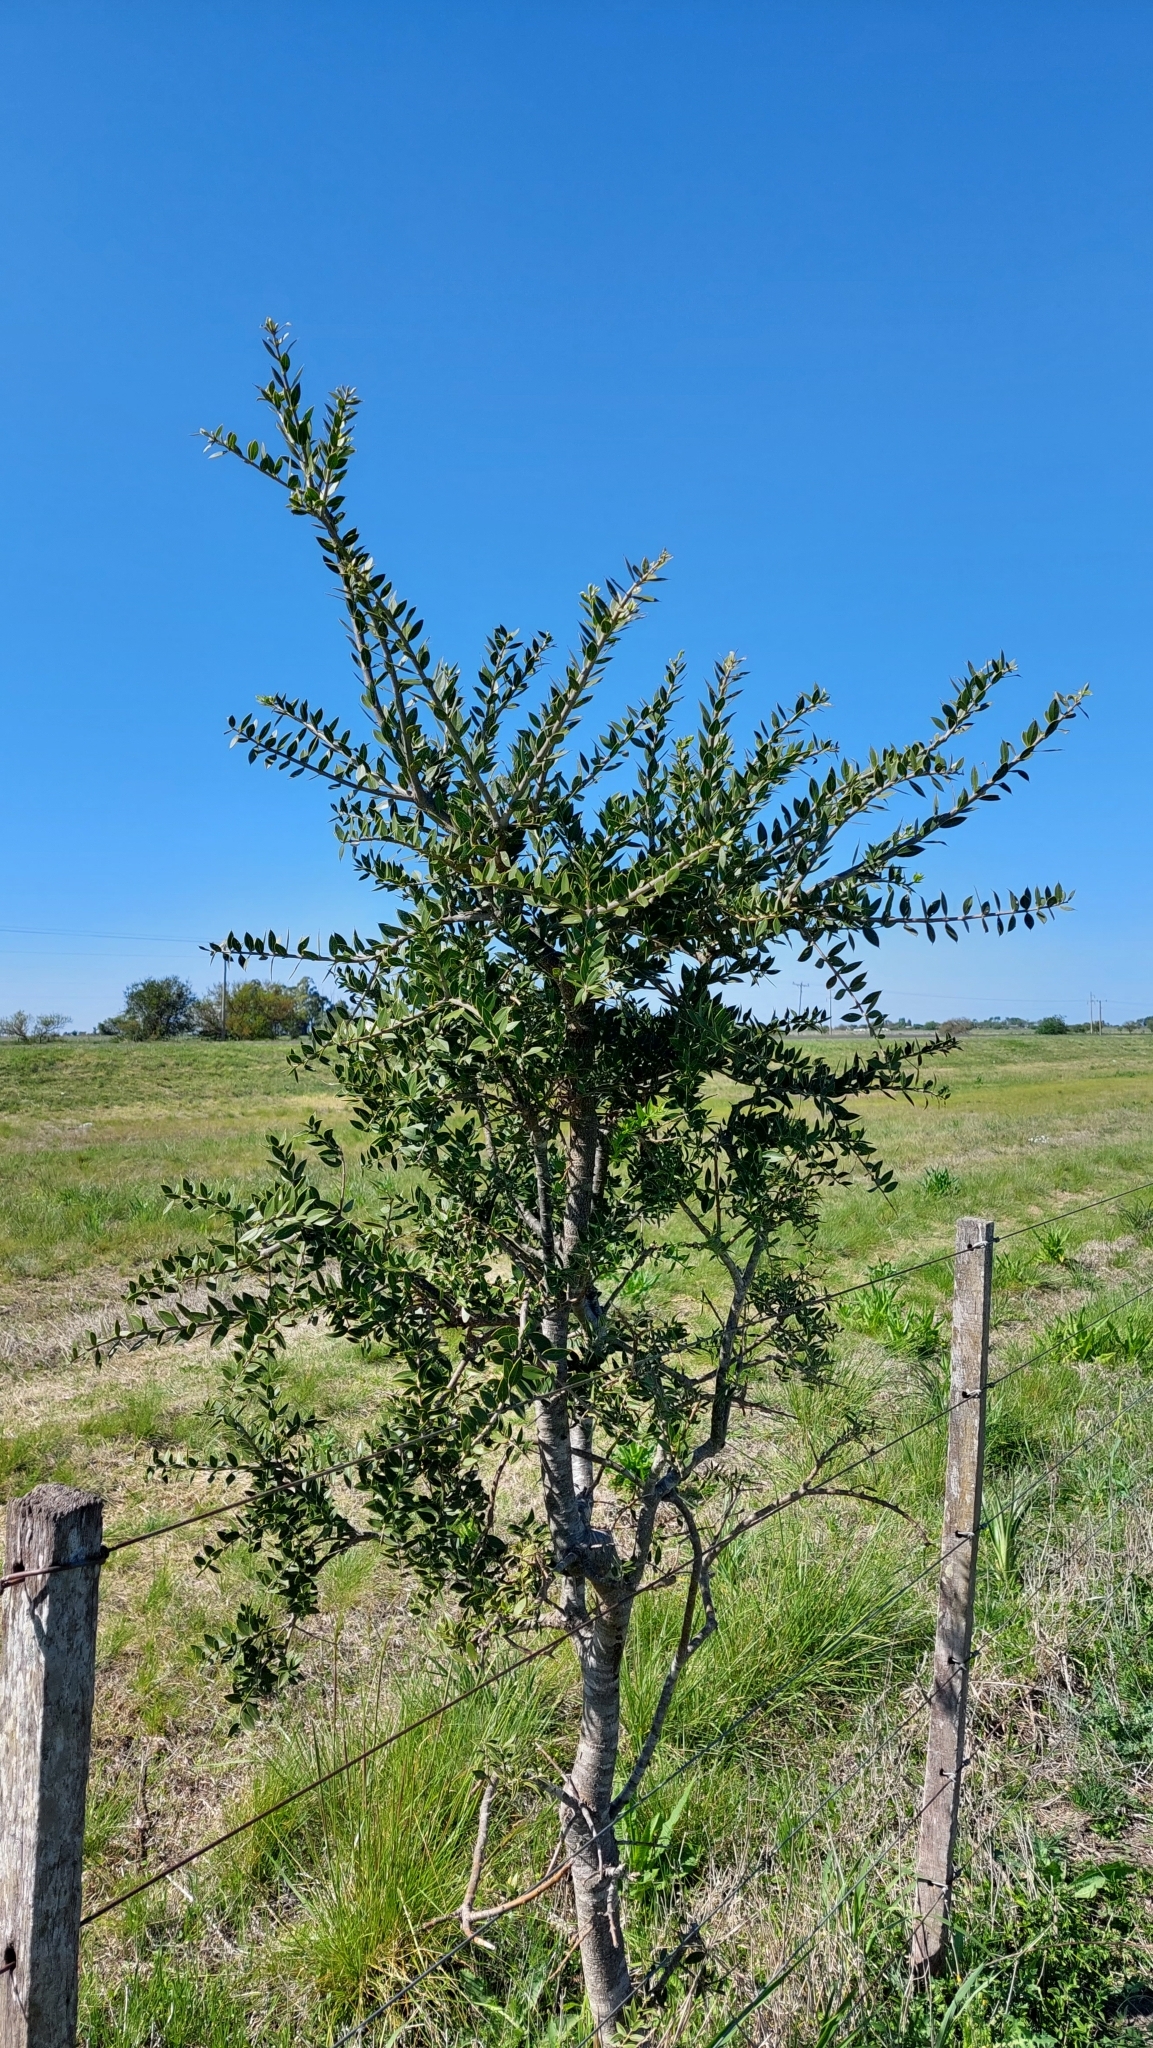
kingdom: Plantae
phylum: Tracheophyta
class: Magnoliopsida
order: Gentianales
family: Apocynaceae
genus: Aspidosperma
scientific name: Aspidosperma quebracho-blanco
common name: White quebracho
